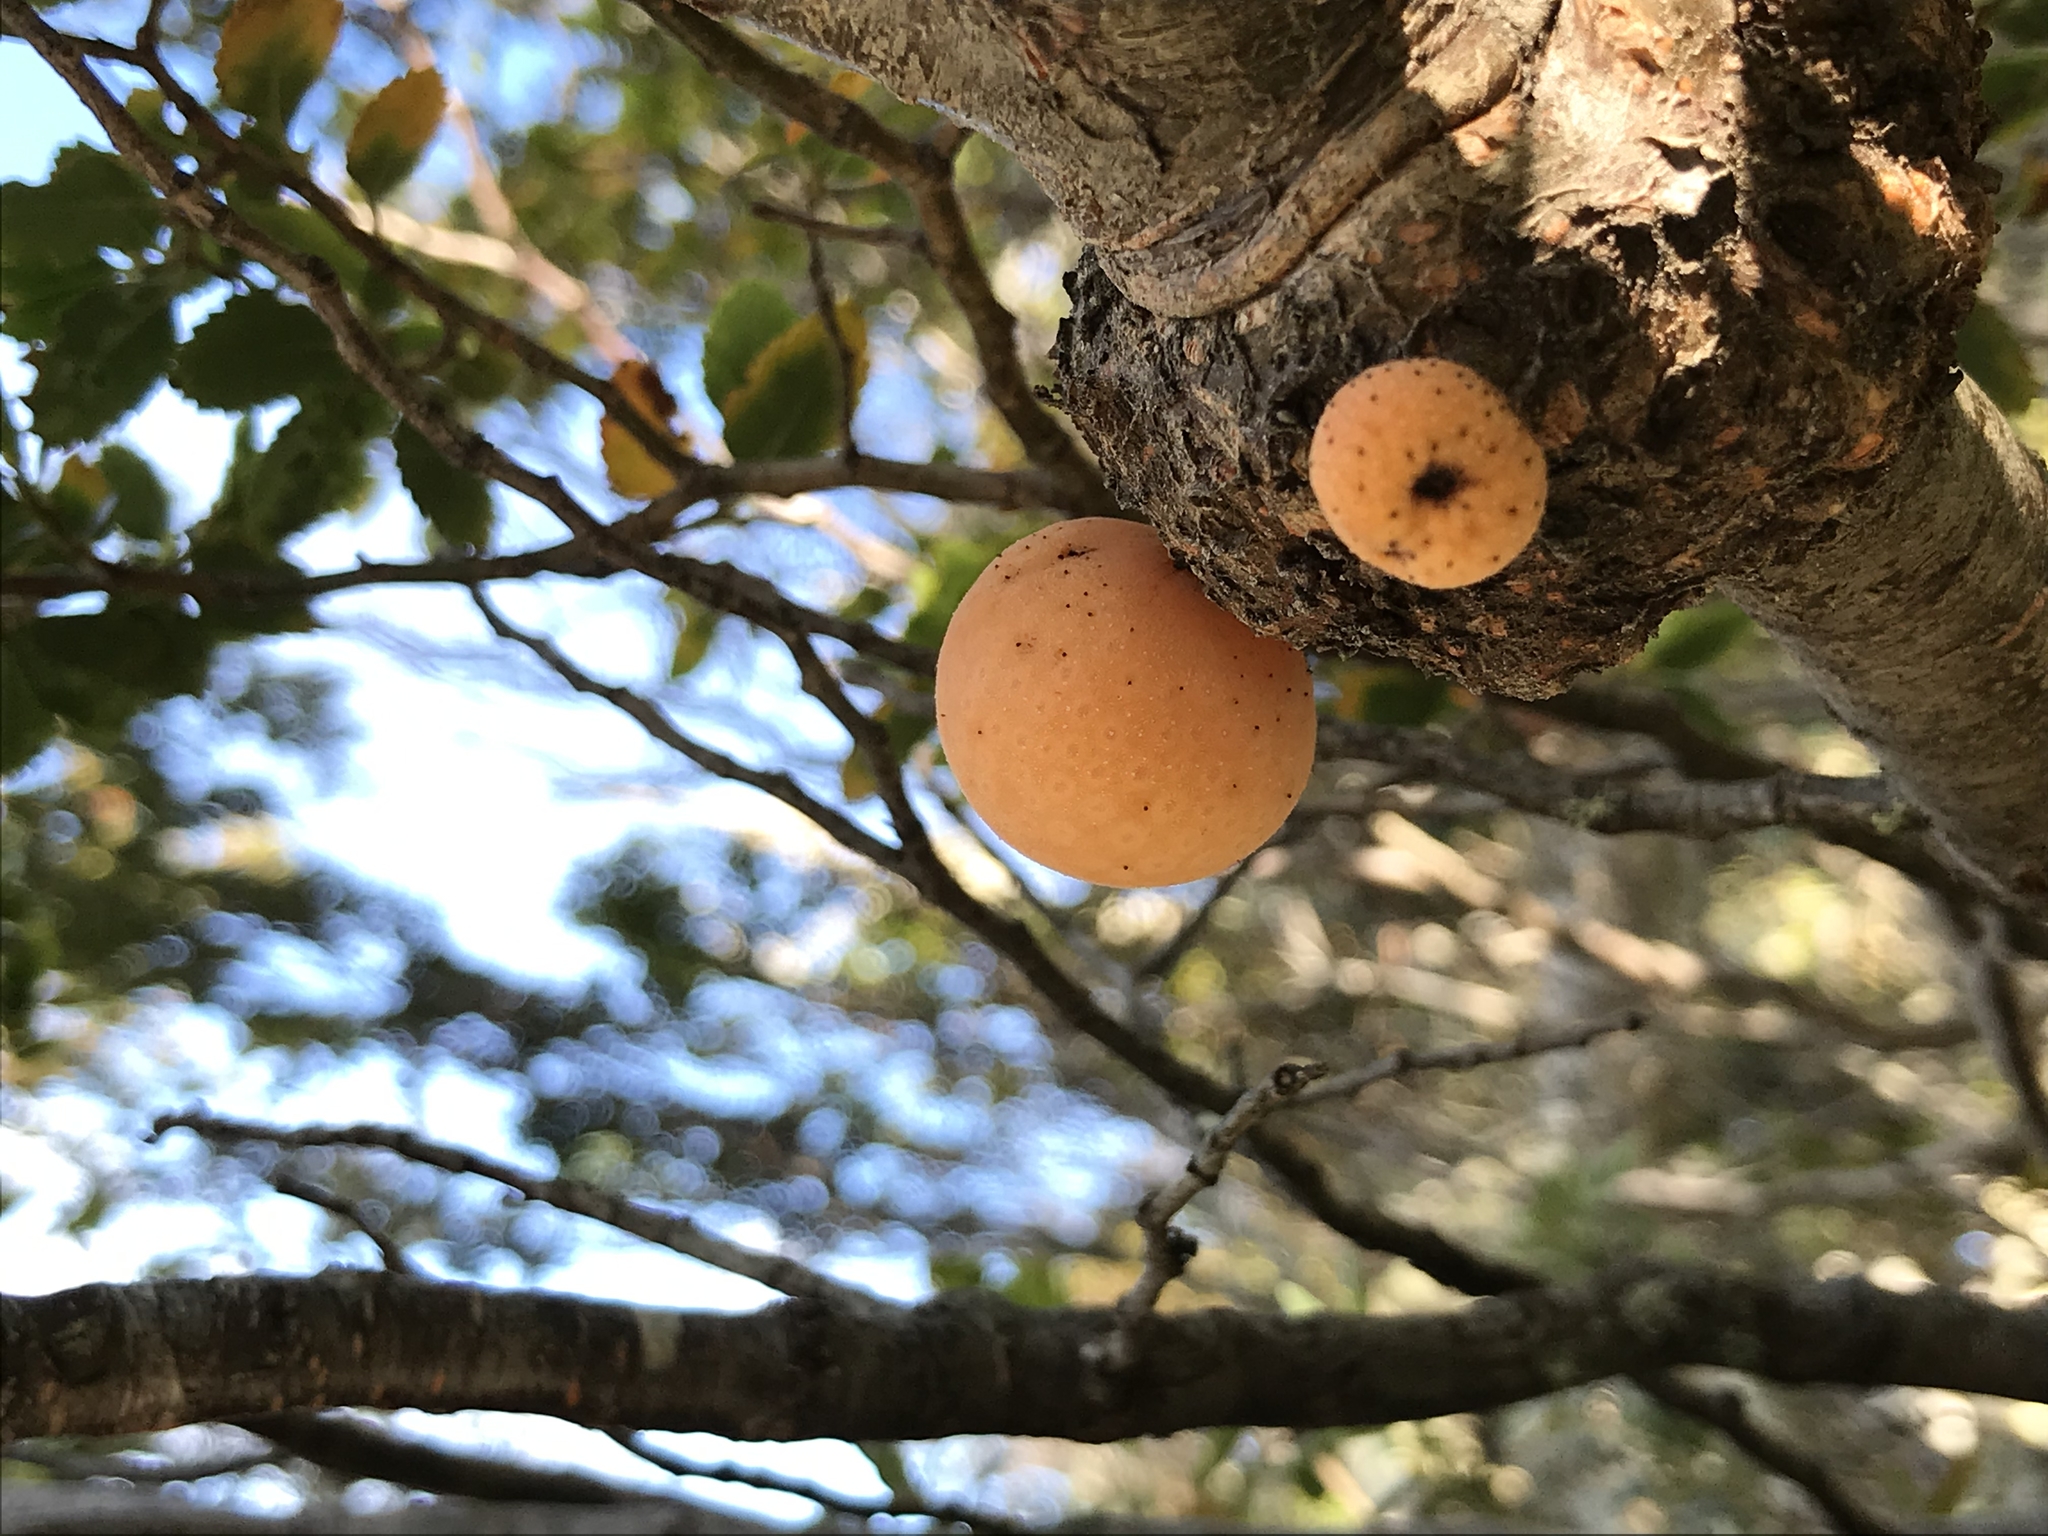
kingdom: Fungi
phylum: Ascomycota
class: Leotiomycetes
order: Cyttariales
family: Cyttariaceae
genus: Cyttaria
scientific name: Cyttaria darwinii
